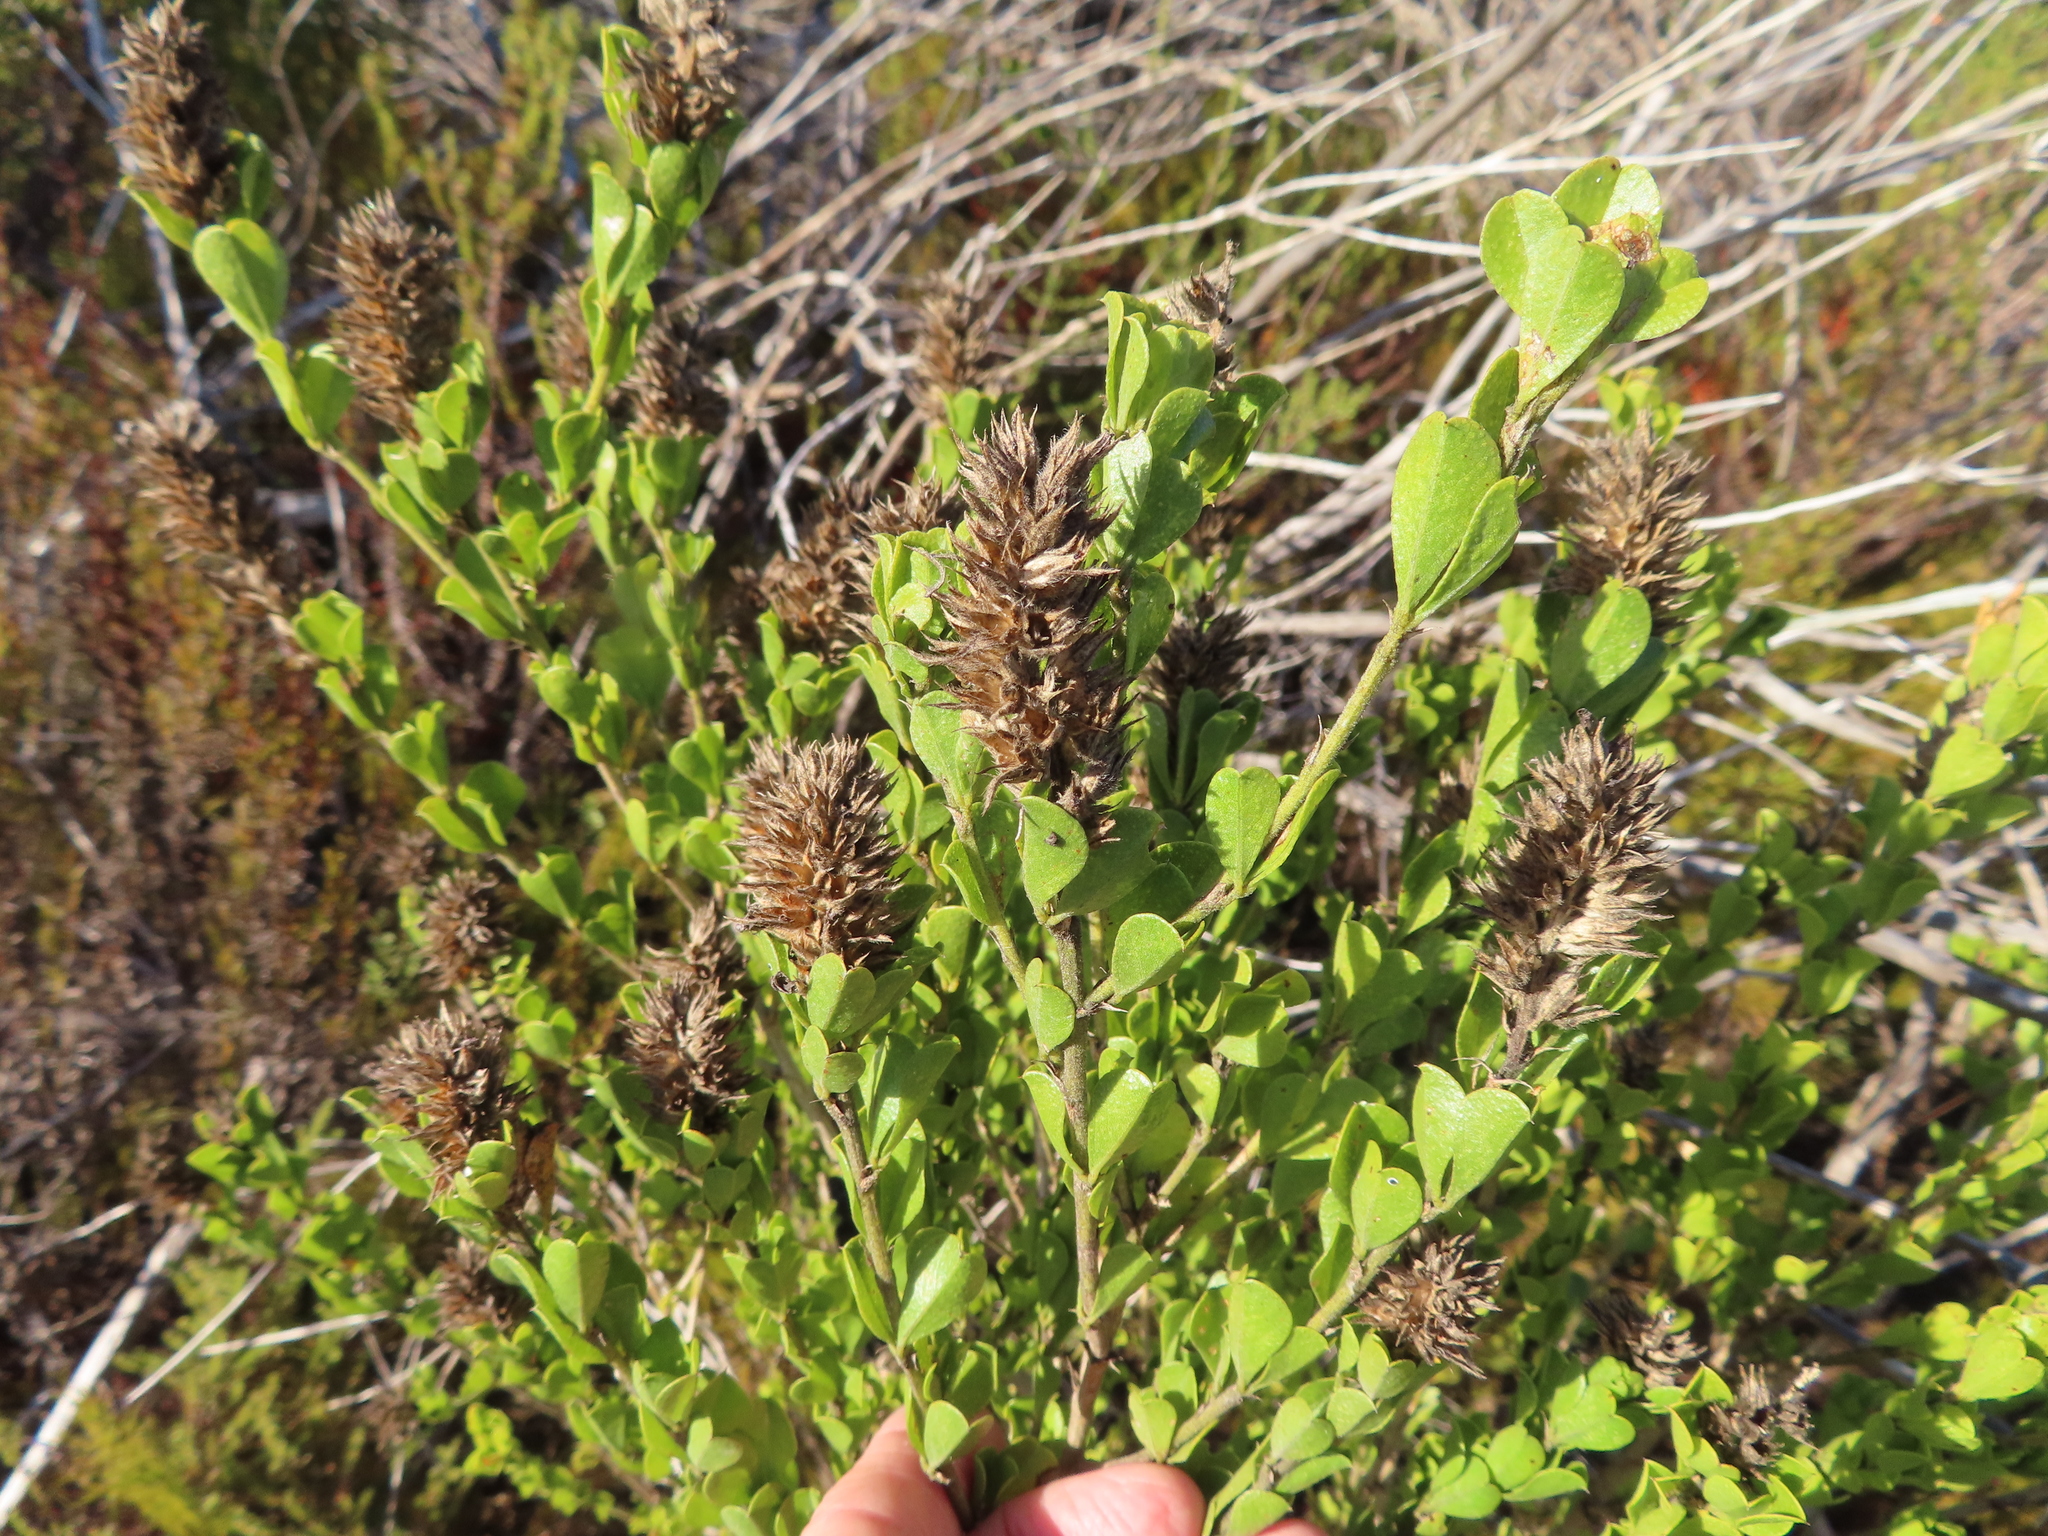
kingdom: Plantae
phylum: Tracheophyta
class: Magnoliopsida
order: Fabales
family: Fabaceae
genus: Psoralea
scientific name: Psoralea bracteolata
